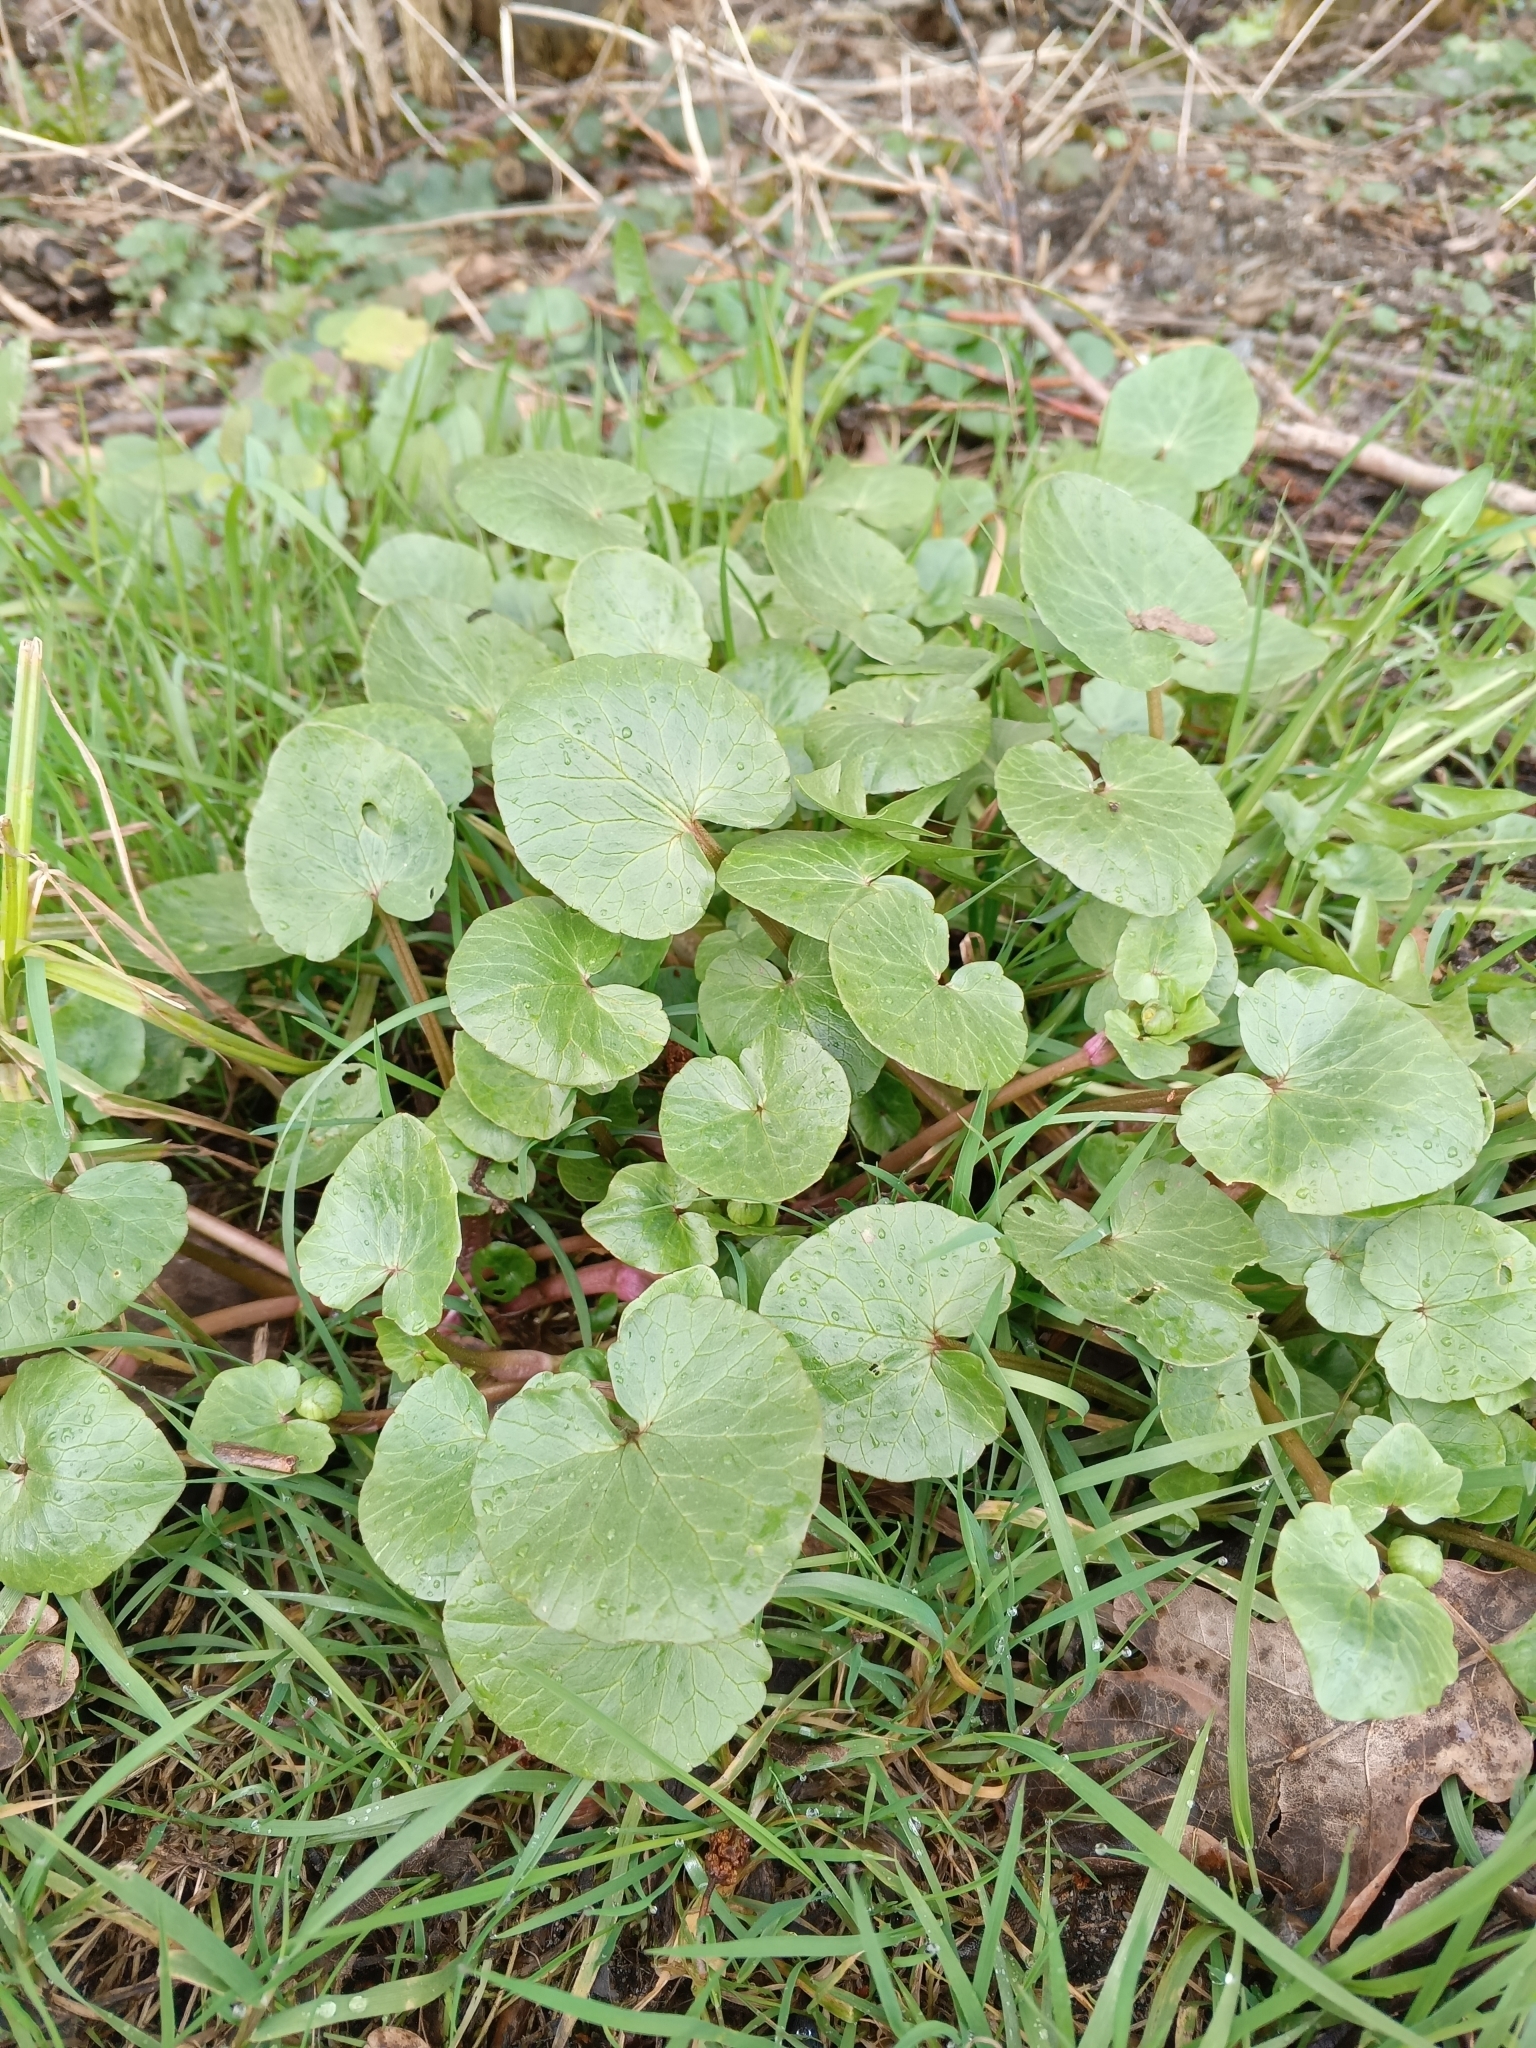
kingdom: Plantae
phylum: Tracheophyta
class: Magnoliopsida
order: Ranunculales
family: Ranunculaceae
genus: Ficaria
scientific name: Ficaria verna
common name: Lesser celandine
